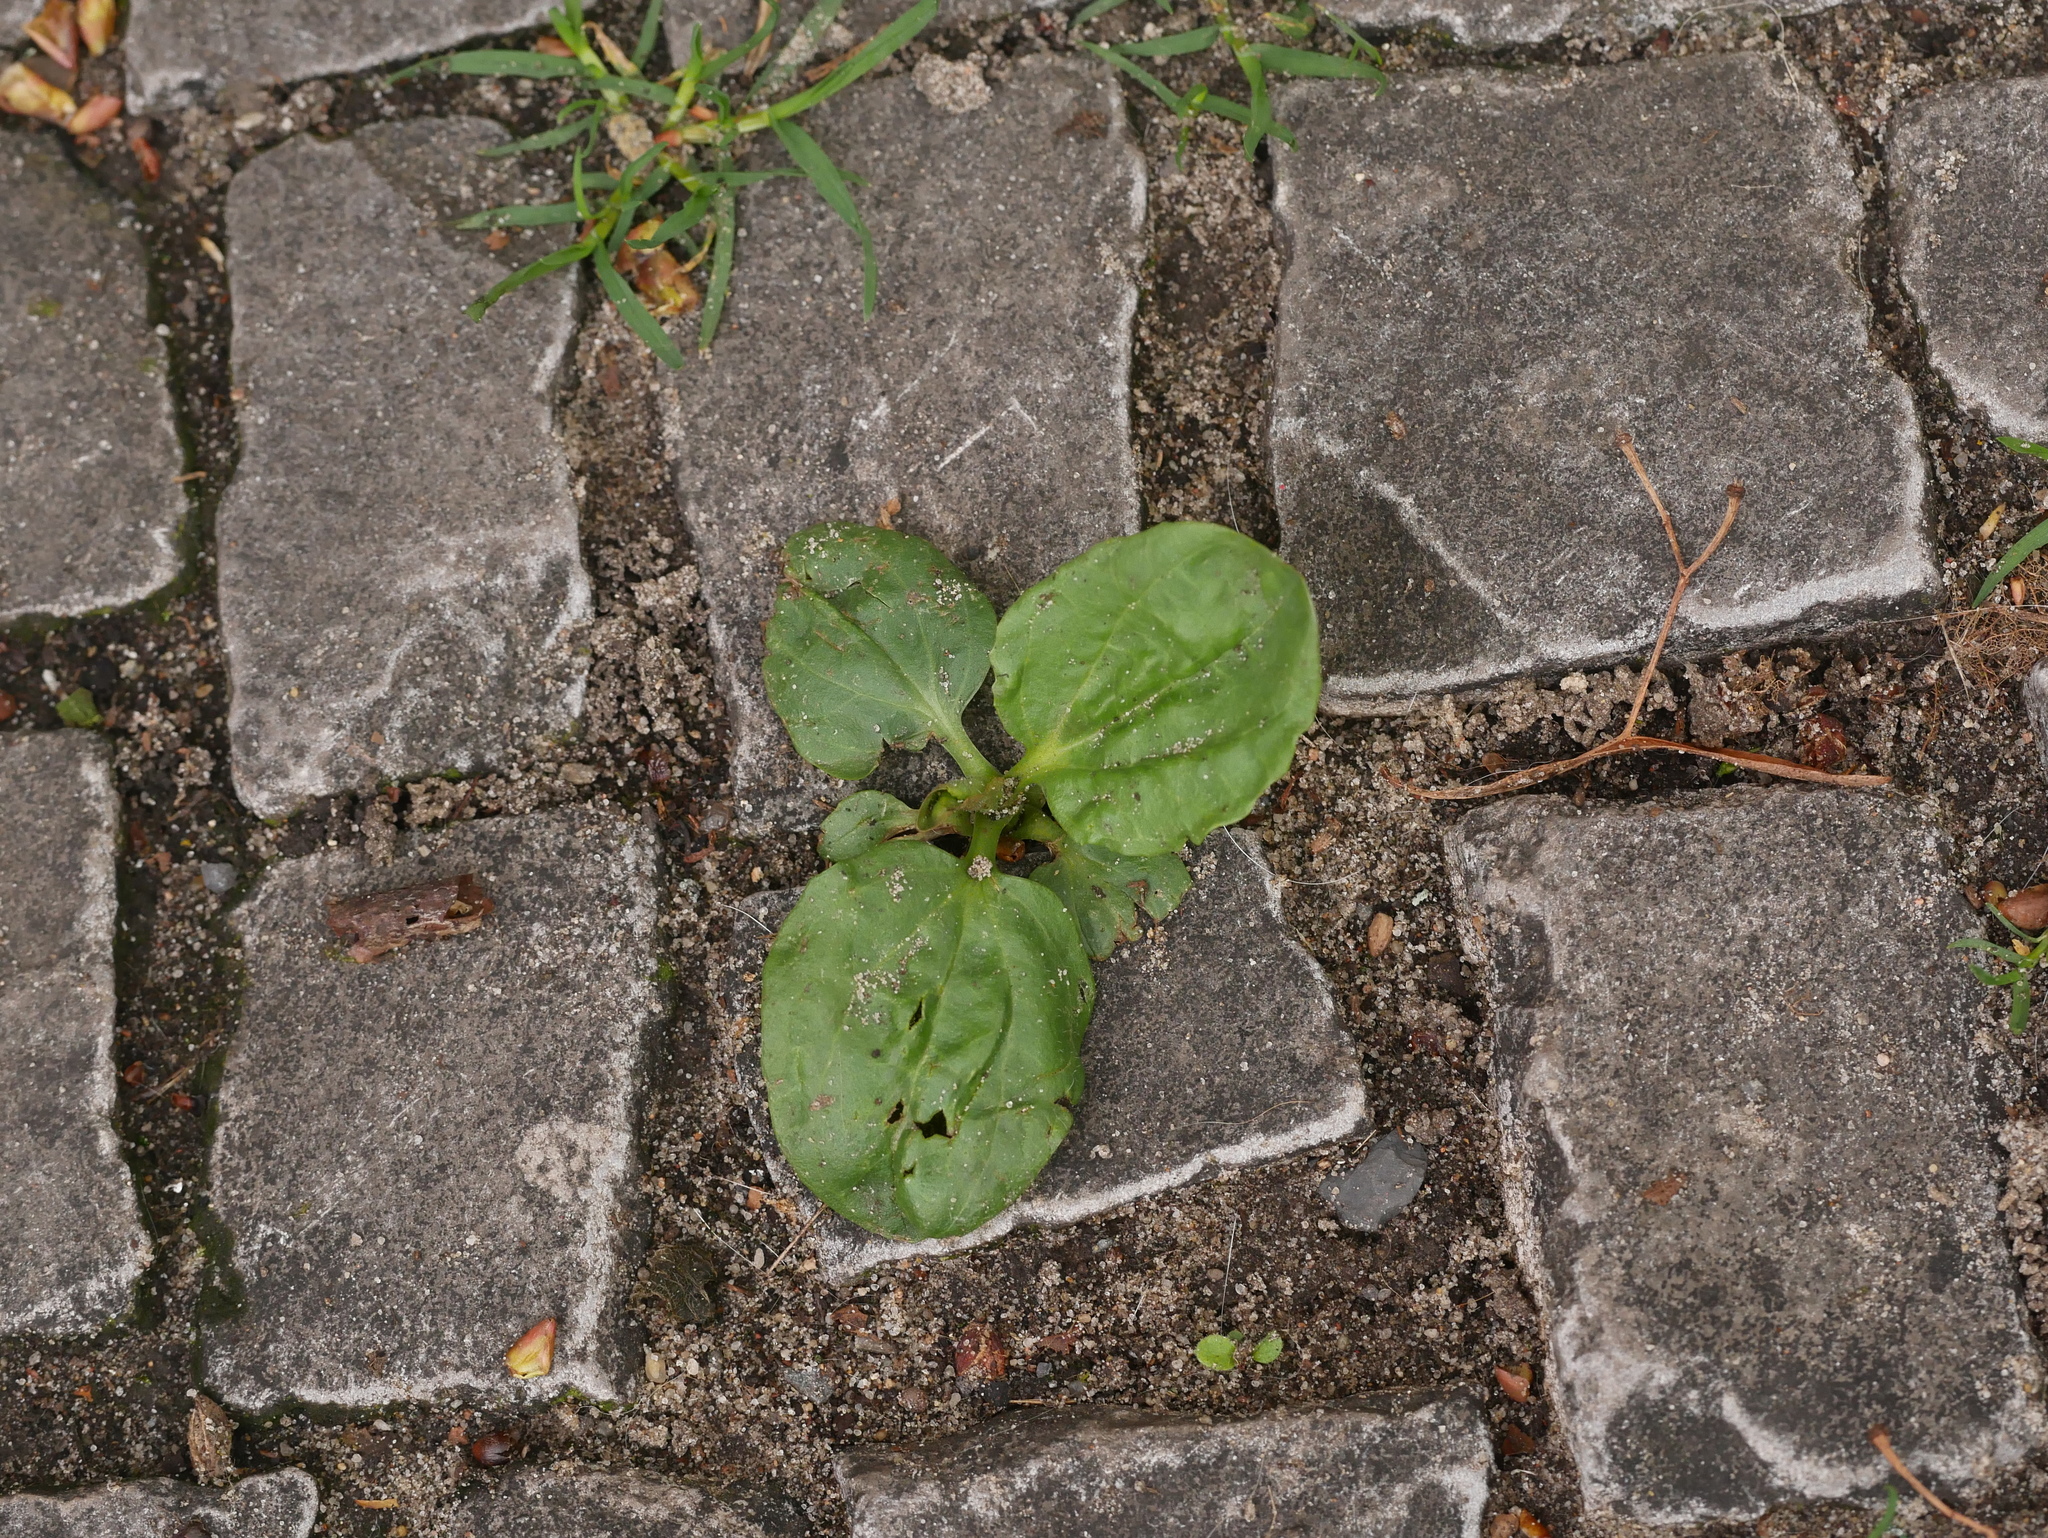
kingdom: Plantae
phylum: Tracheophyta
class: Magnoliopsida
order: Lamiales
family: Plantaginaceae
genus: Plantago
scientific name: Plantago major
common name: Common plantain
